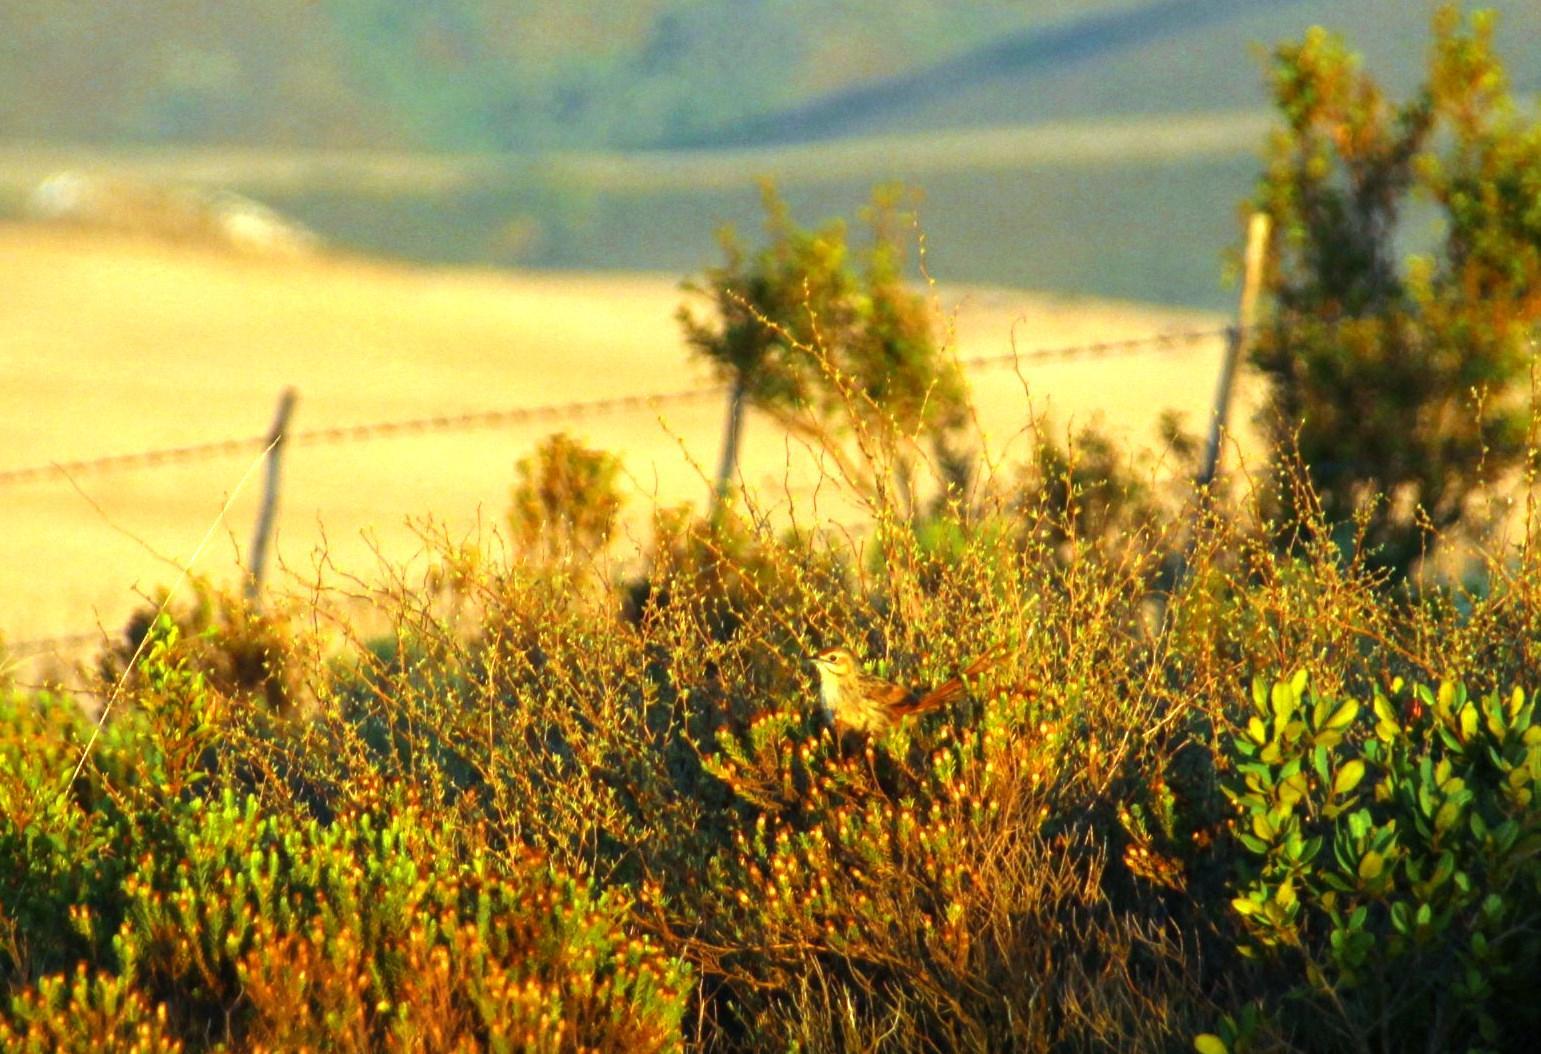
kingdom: Animalia
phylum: Chordata
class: Aves
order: Passeriformes
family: Macrosphenidae
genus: Sphenoeacus
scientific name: Sphenoeacus afer
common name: Cape grassbird
